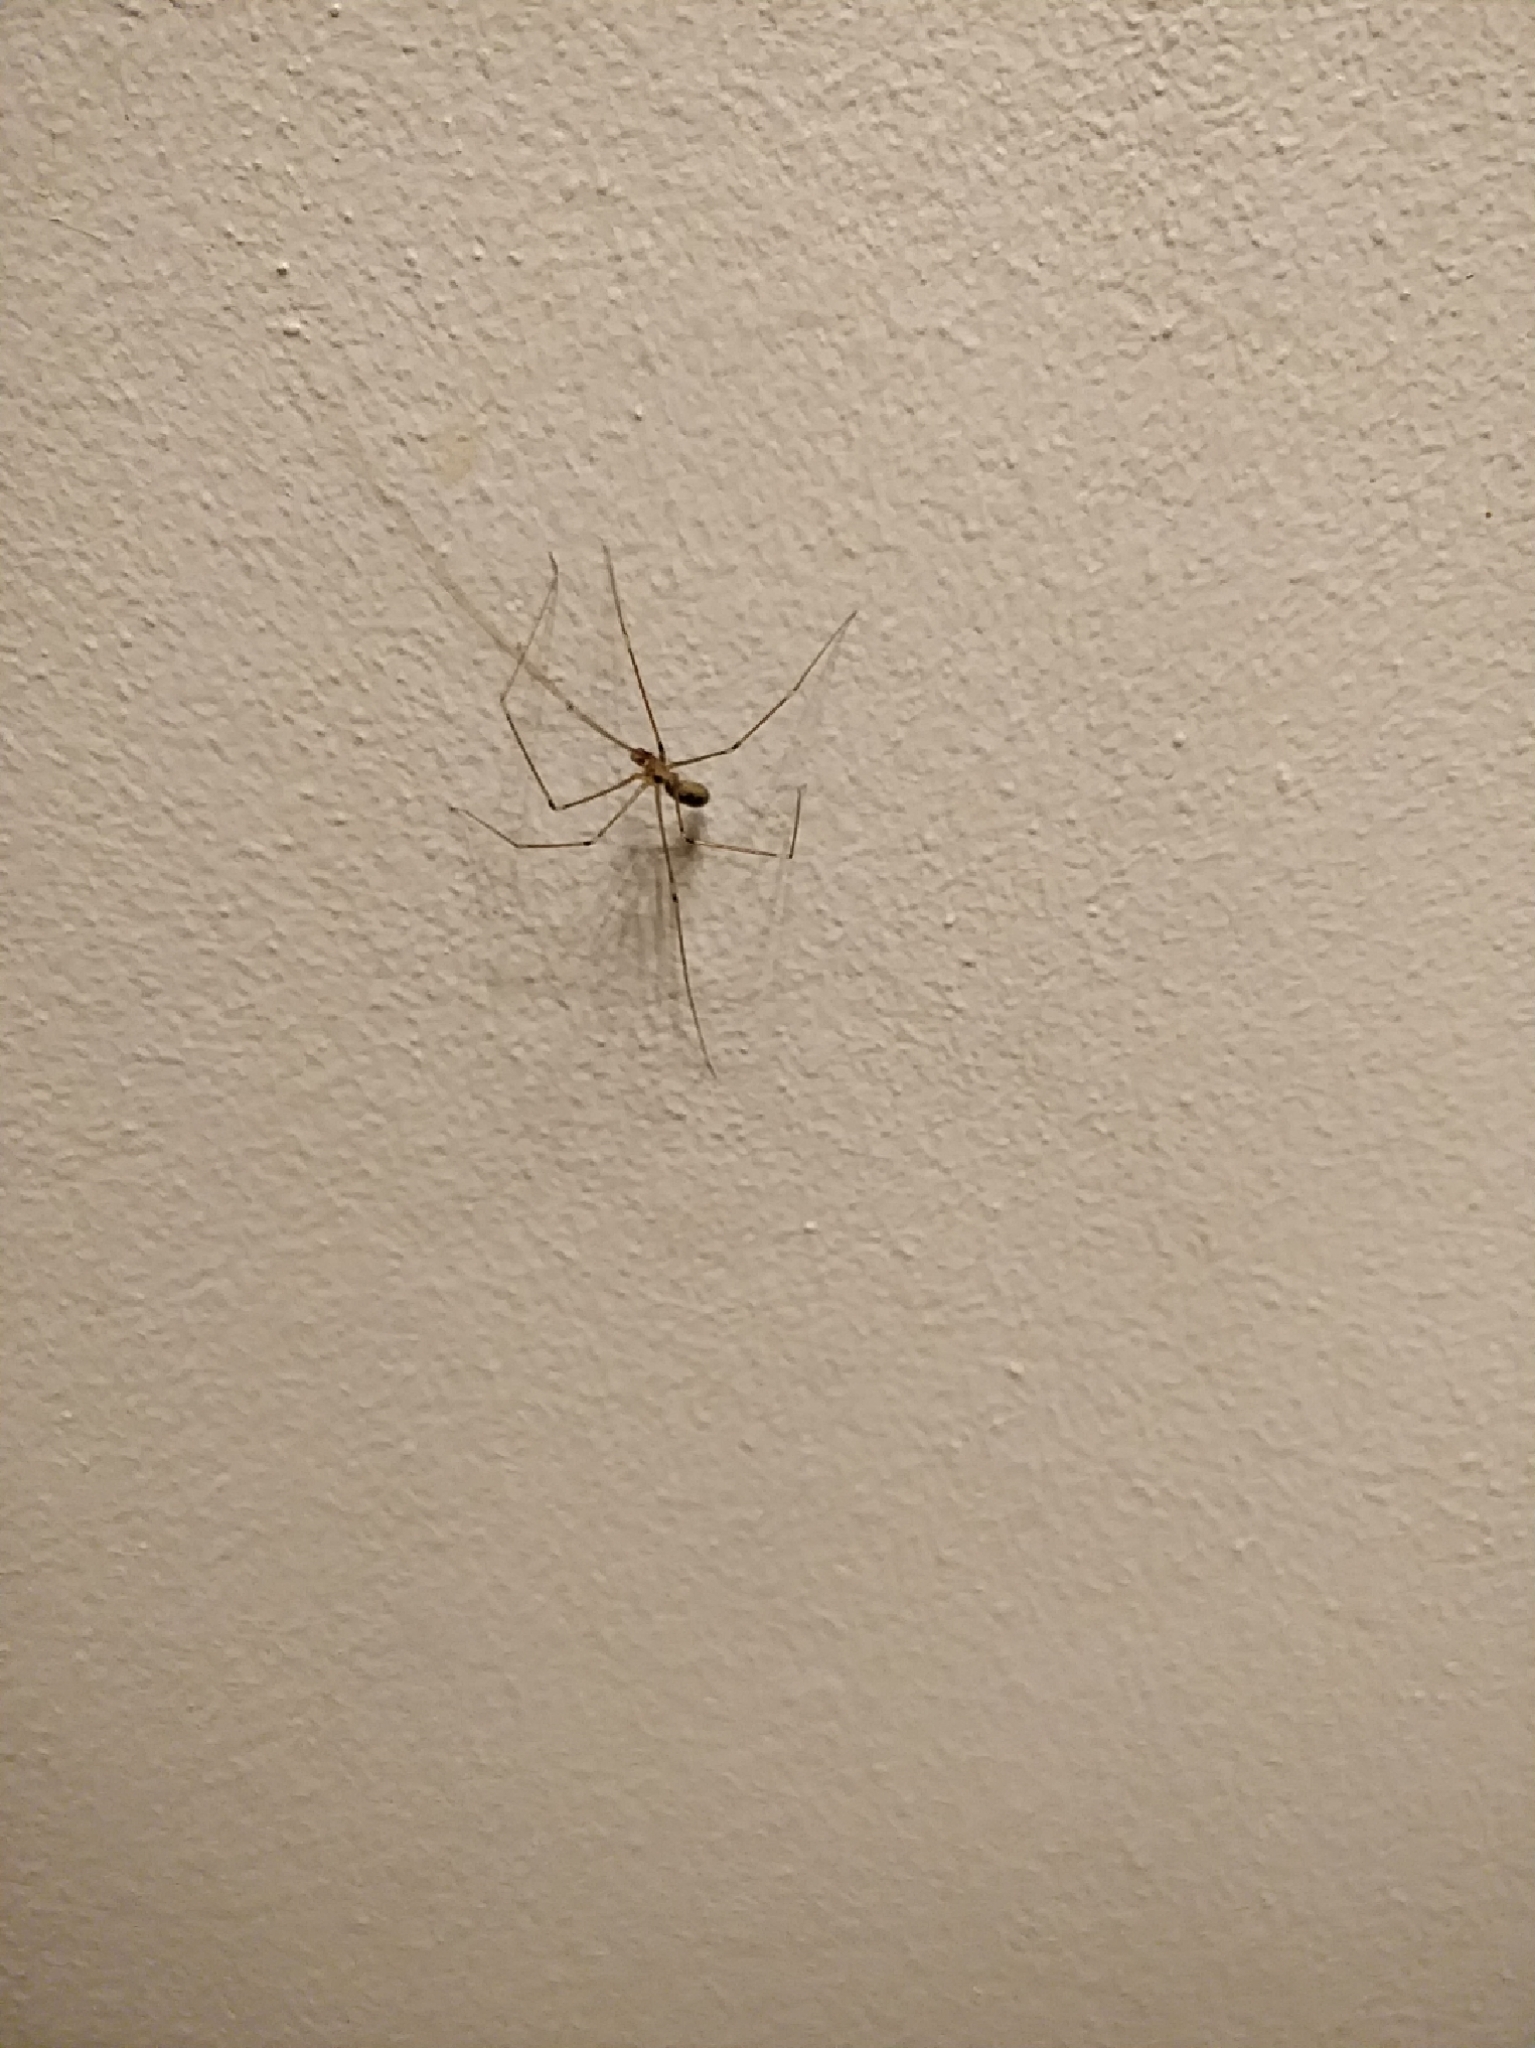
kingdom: Animalia
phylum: Arthropoda
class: Arachnida
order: Araneae
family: Pholcidae
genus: Pholcus
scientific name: Pholcus phalangioides
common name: Longbodied cellar spider
